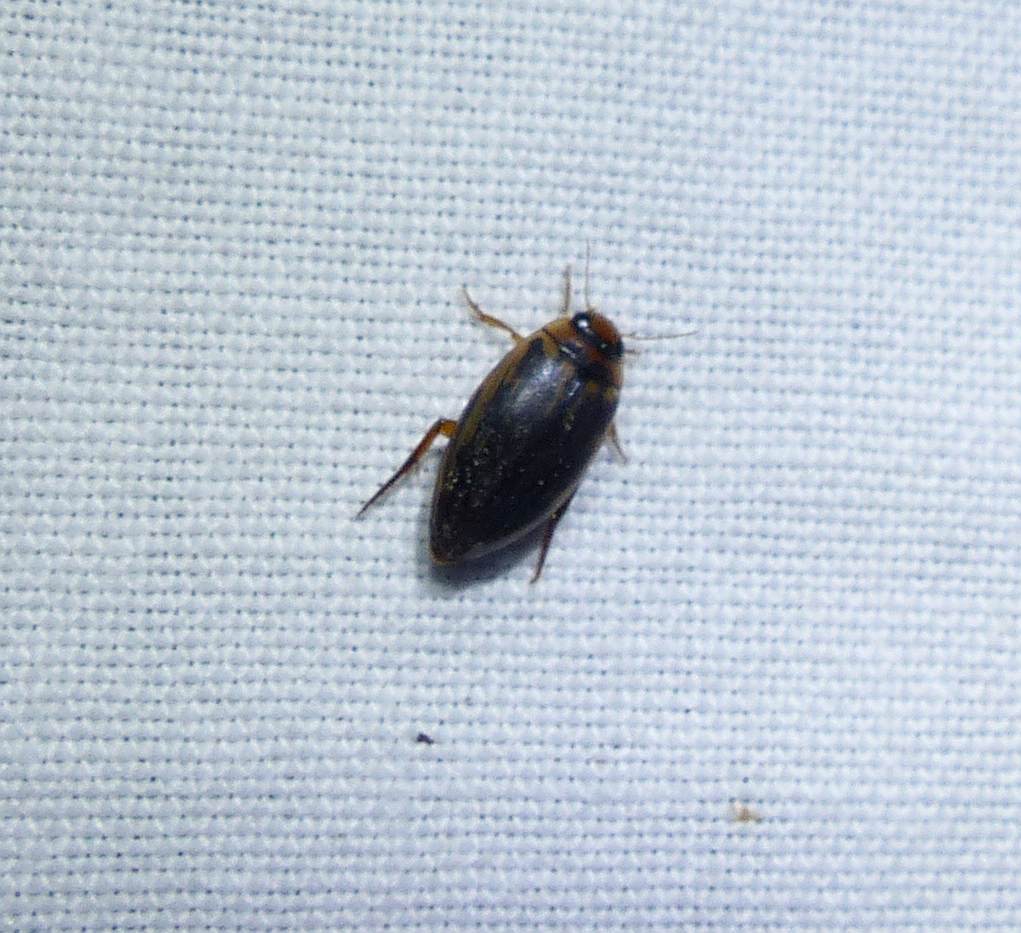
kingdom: Animalia
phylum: Arthropoda
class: Insecta
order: Coleoptera
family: Dytiscidae
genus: Coptotomus
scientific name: Coptotomus longulus
